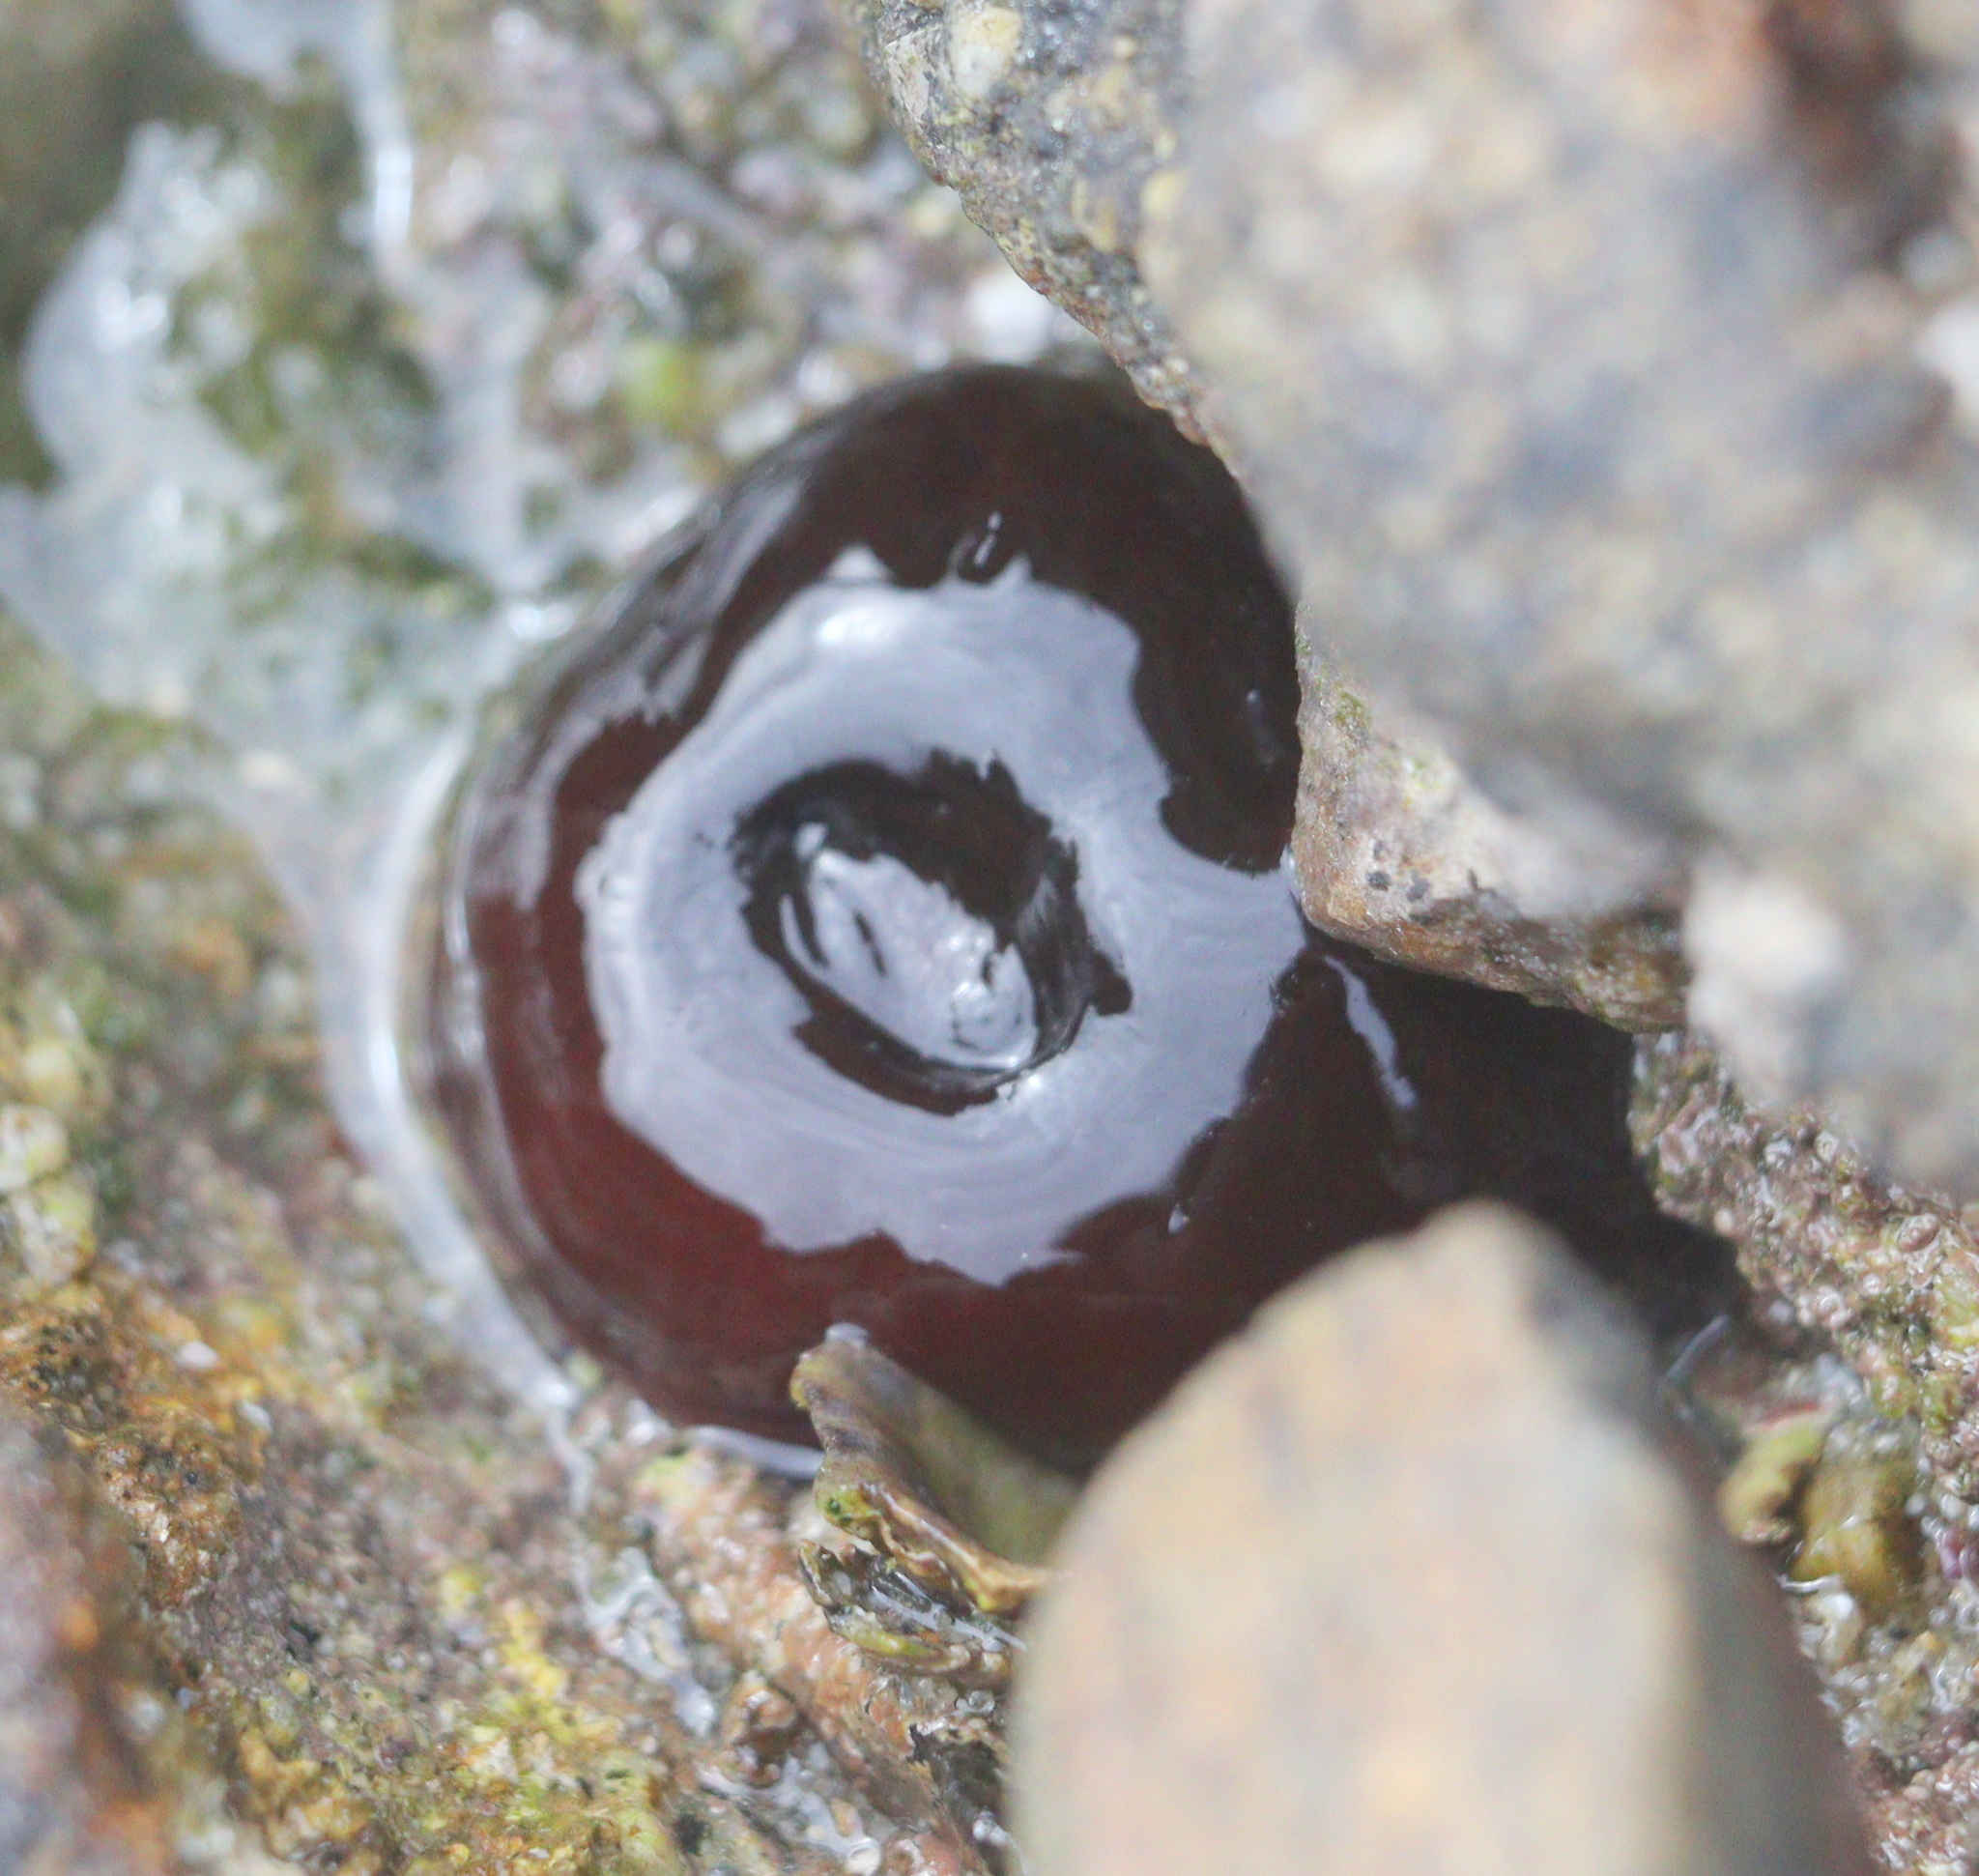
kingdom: Animalia
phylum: Cnidaria
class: Anthozoa
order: Actiniaria
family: Actiniidae
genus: Actinia
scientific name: Actinia equina
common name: Beadlet anemone
